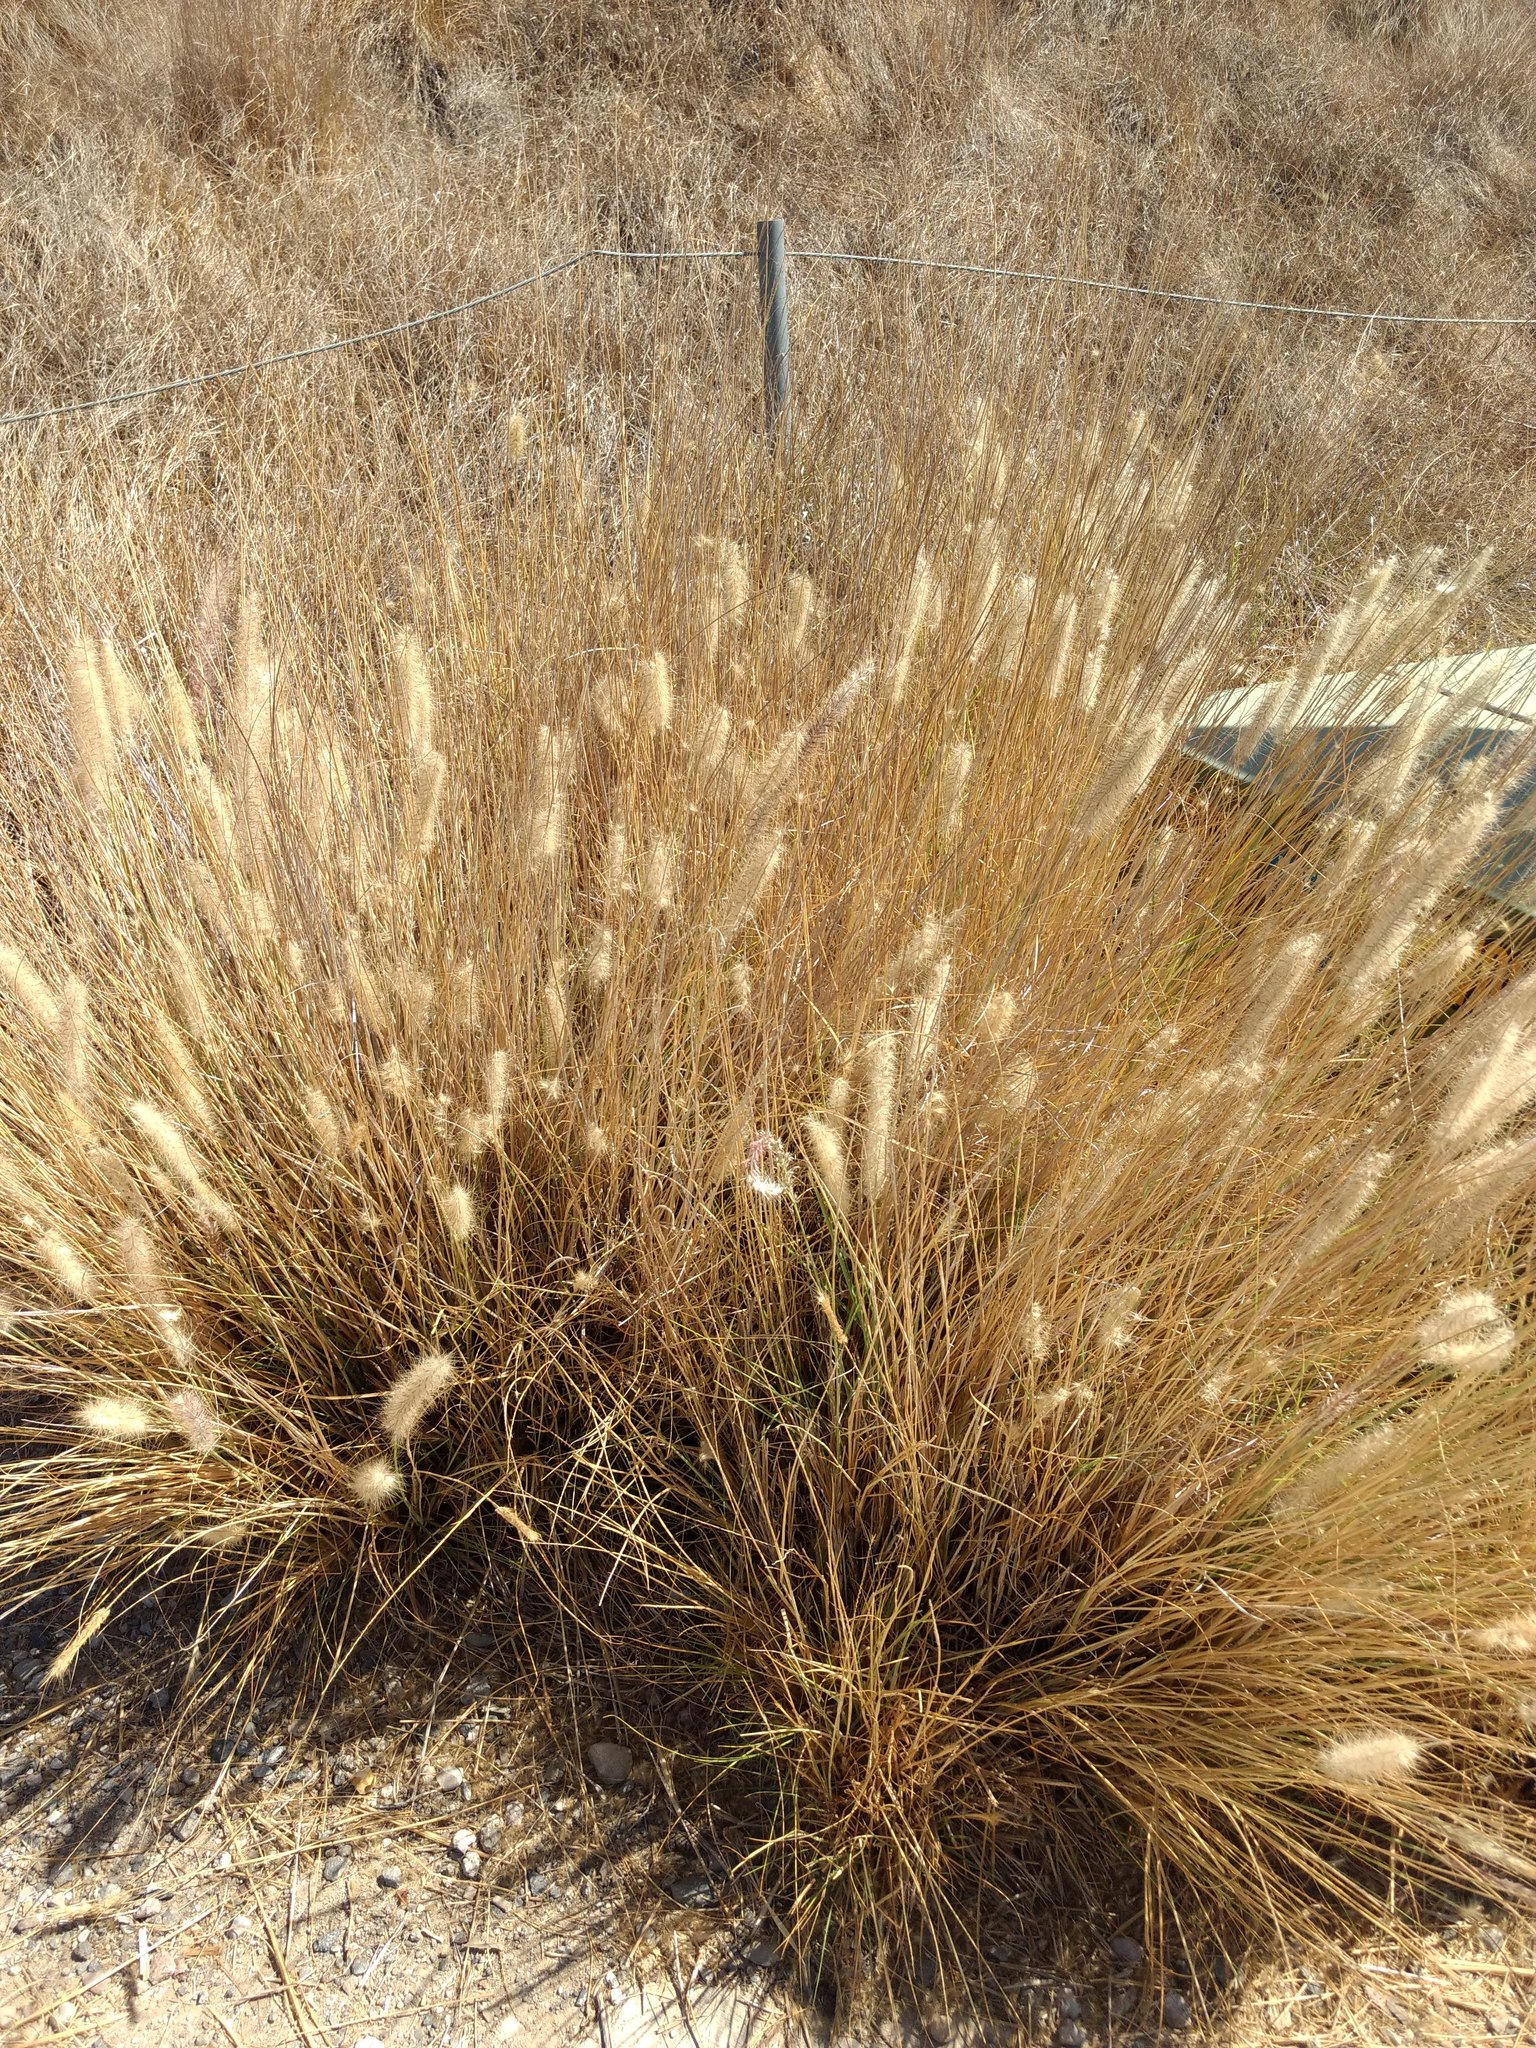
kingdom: Plantae
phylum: Tracheophyta
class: Liliopsida
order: Poales
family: Poaceae
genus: Cenchrus
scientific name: Cenchrus setaceus
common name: Crimson fountaingrass
